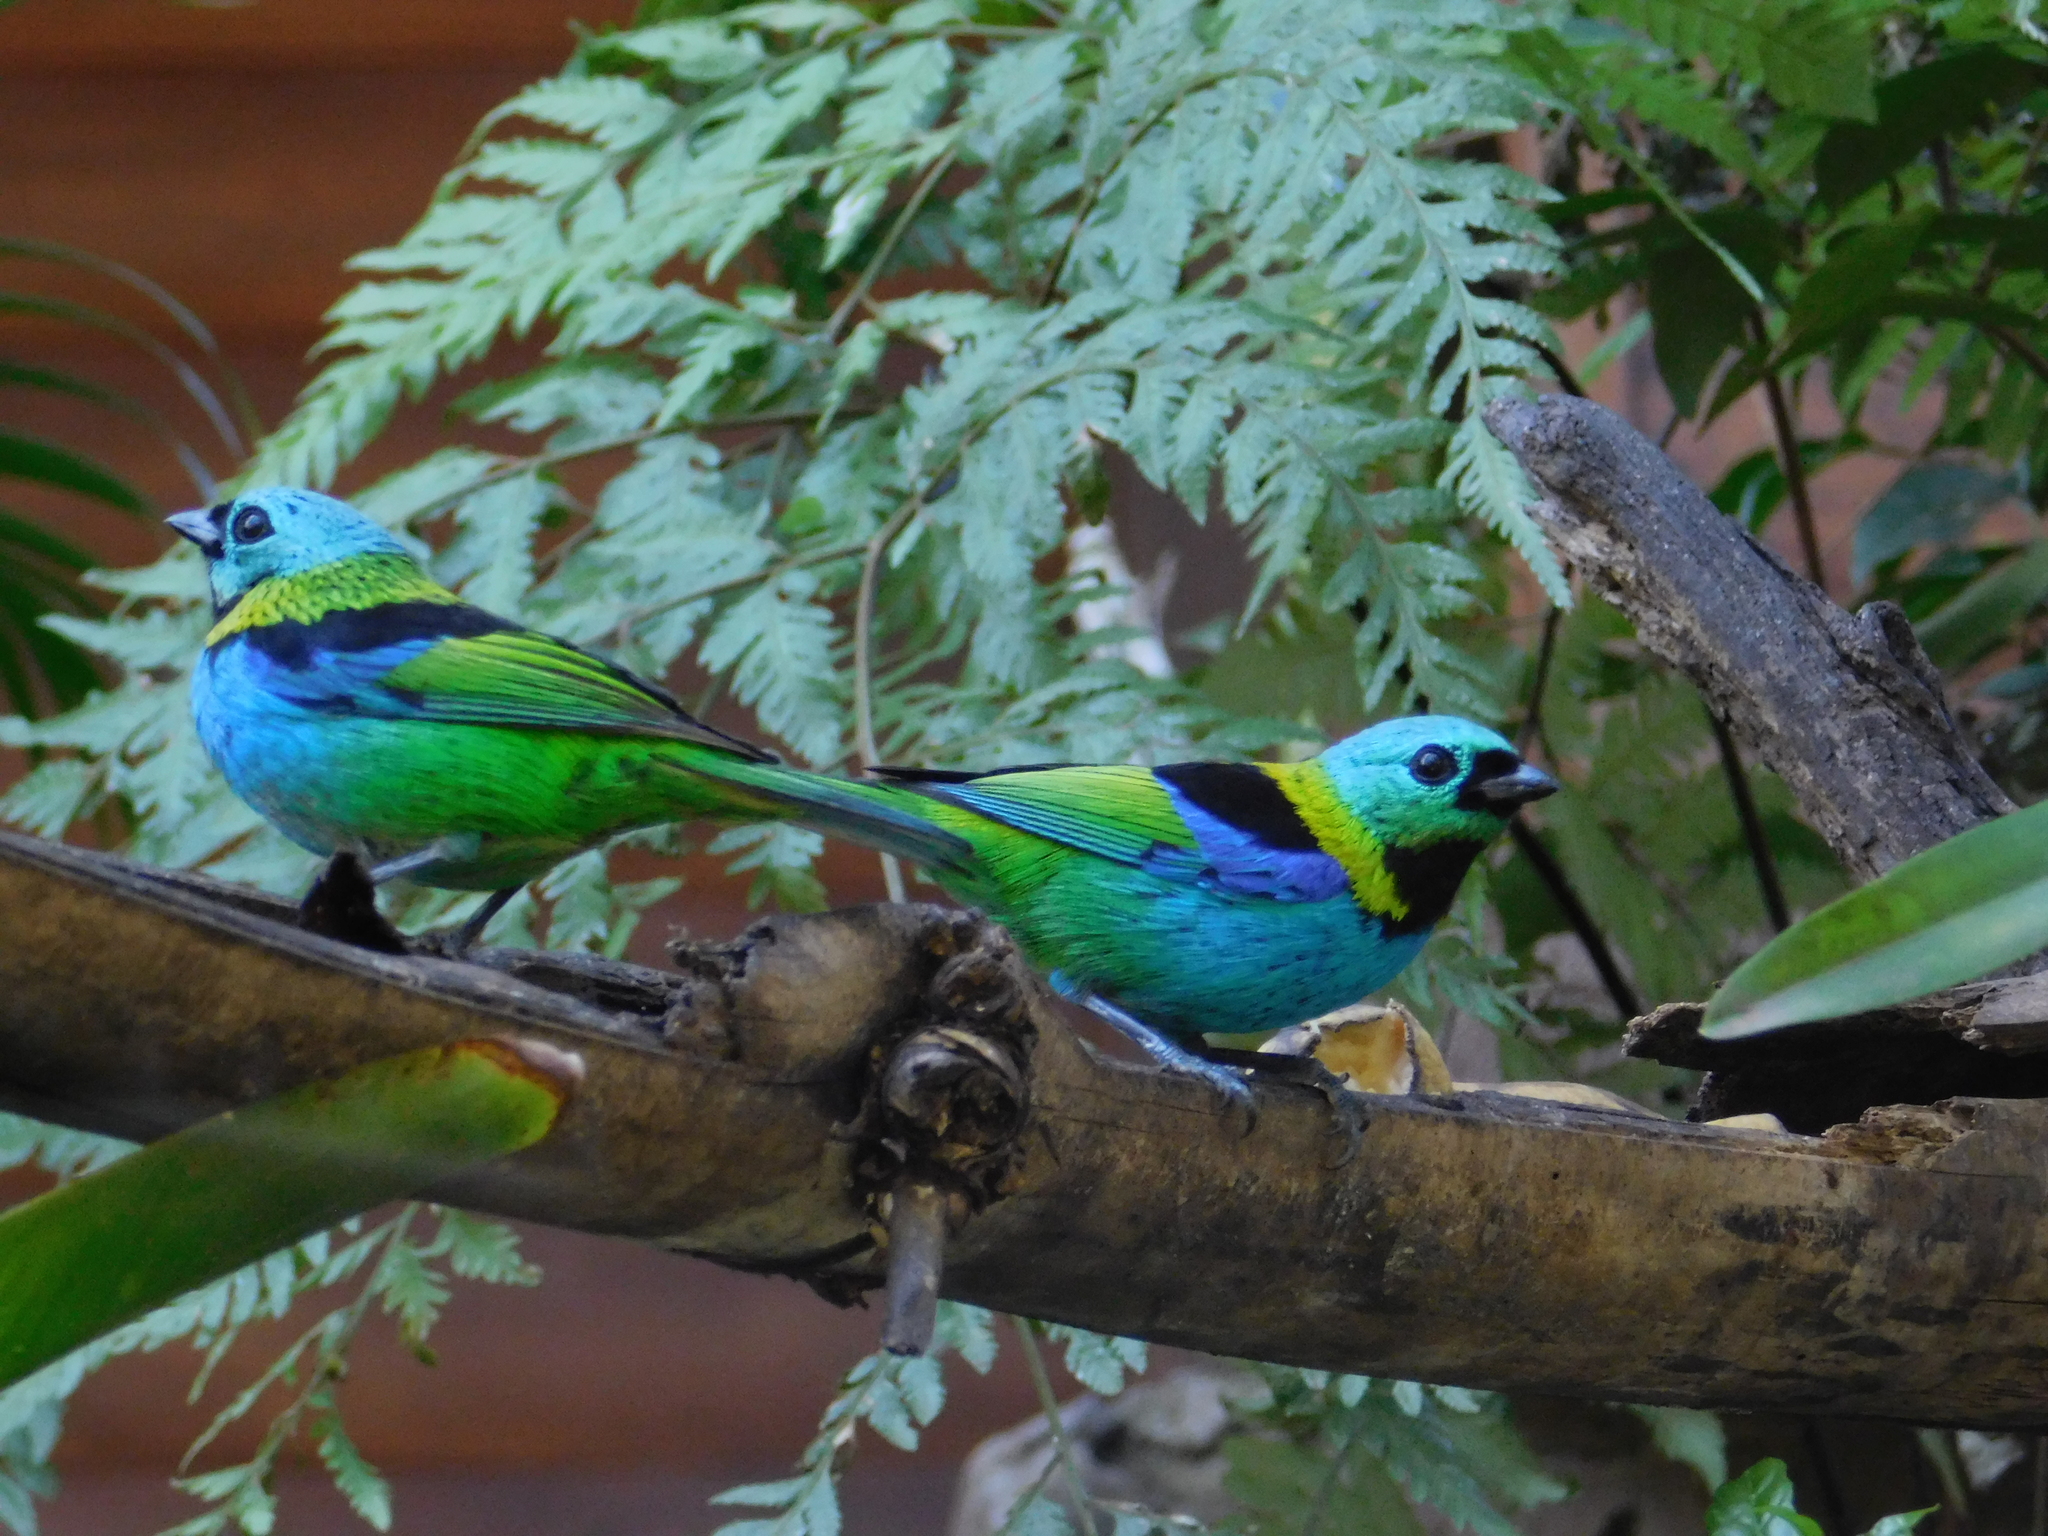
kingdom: Animalia
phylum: Chordata
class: Aves
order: Passeriformes
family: Thraupidae
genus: Tangara
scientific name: Tangara seledon
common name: Green-headed tanager
